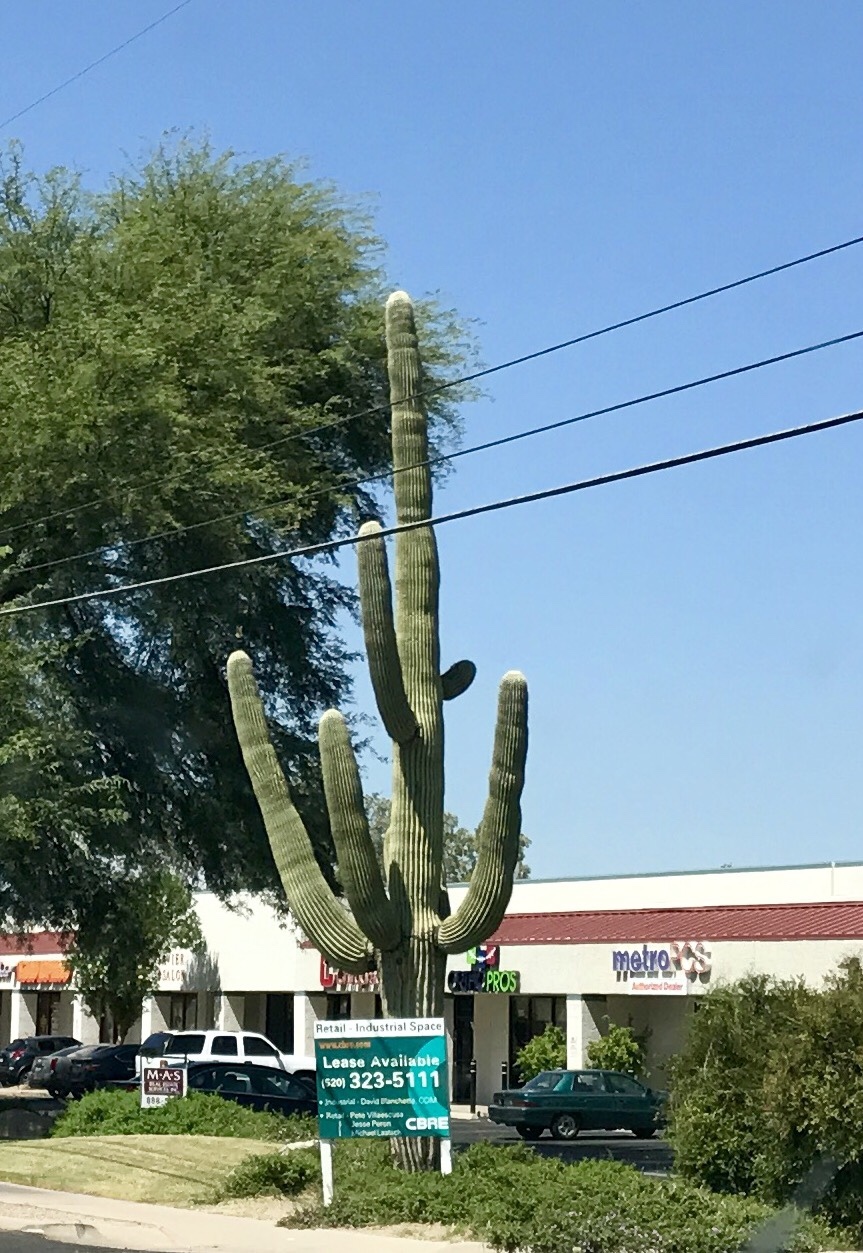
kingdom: Plantae
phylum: Tracheophyta
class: Magnoliopsida
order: Caryophyllales
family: Cactaceae
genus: Carnegiea
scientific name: Carnegiea gigantea
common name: Saguaro
